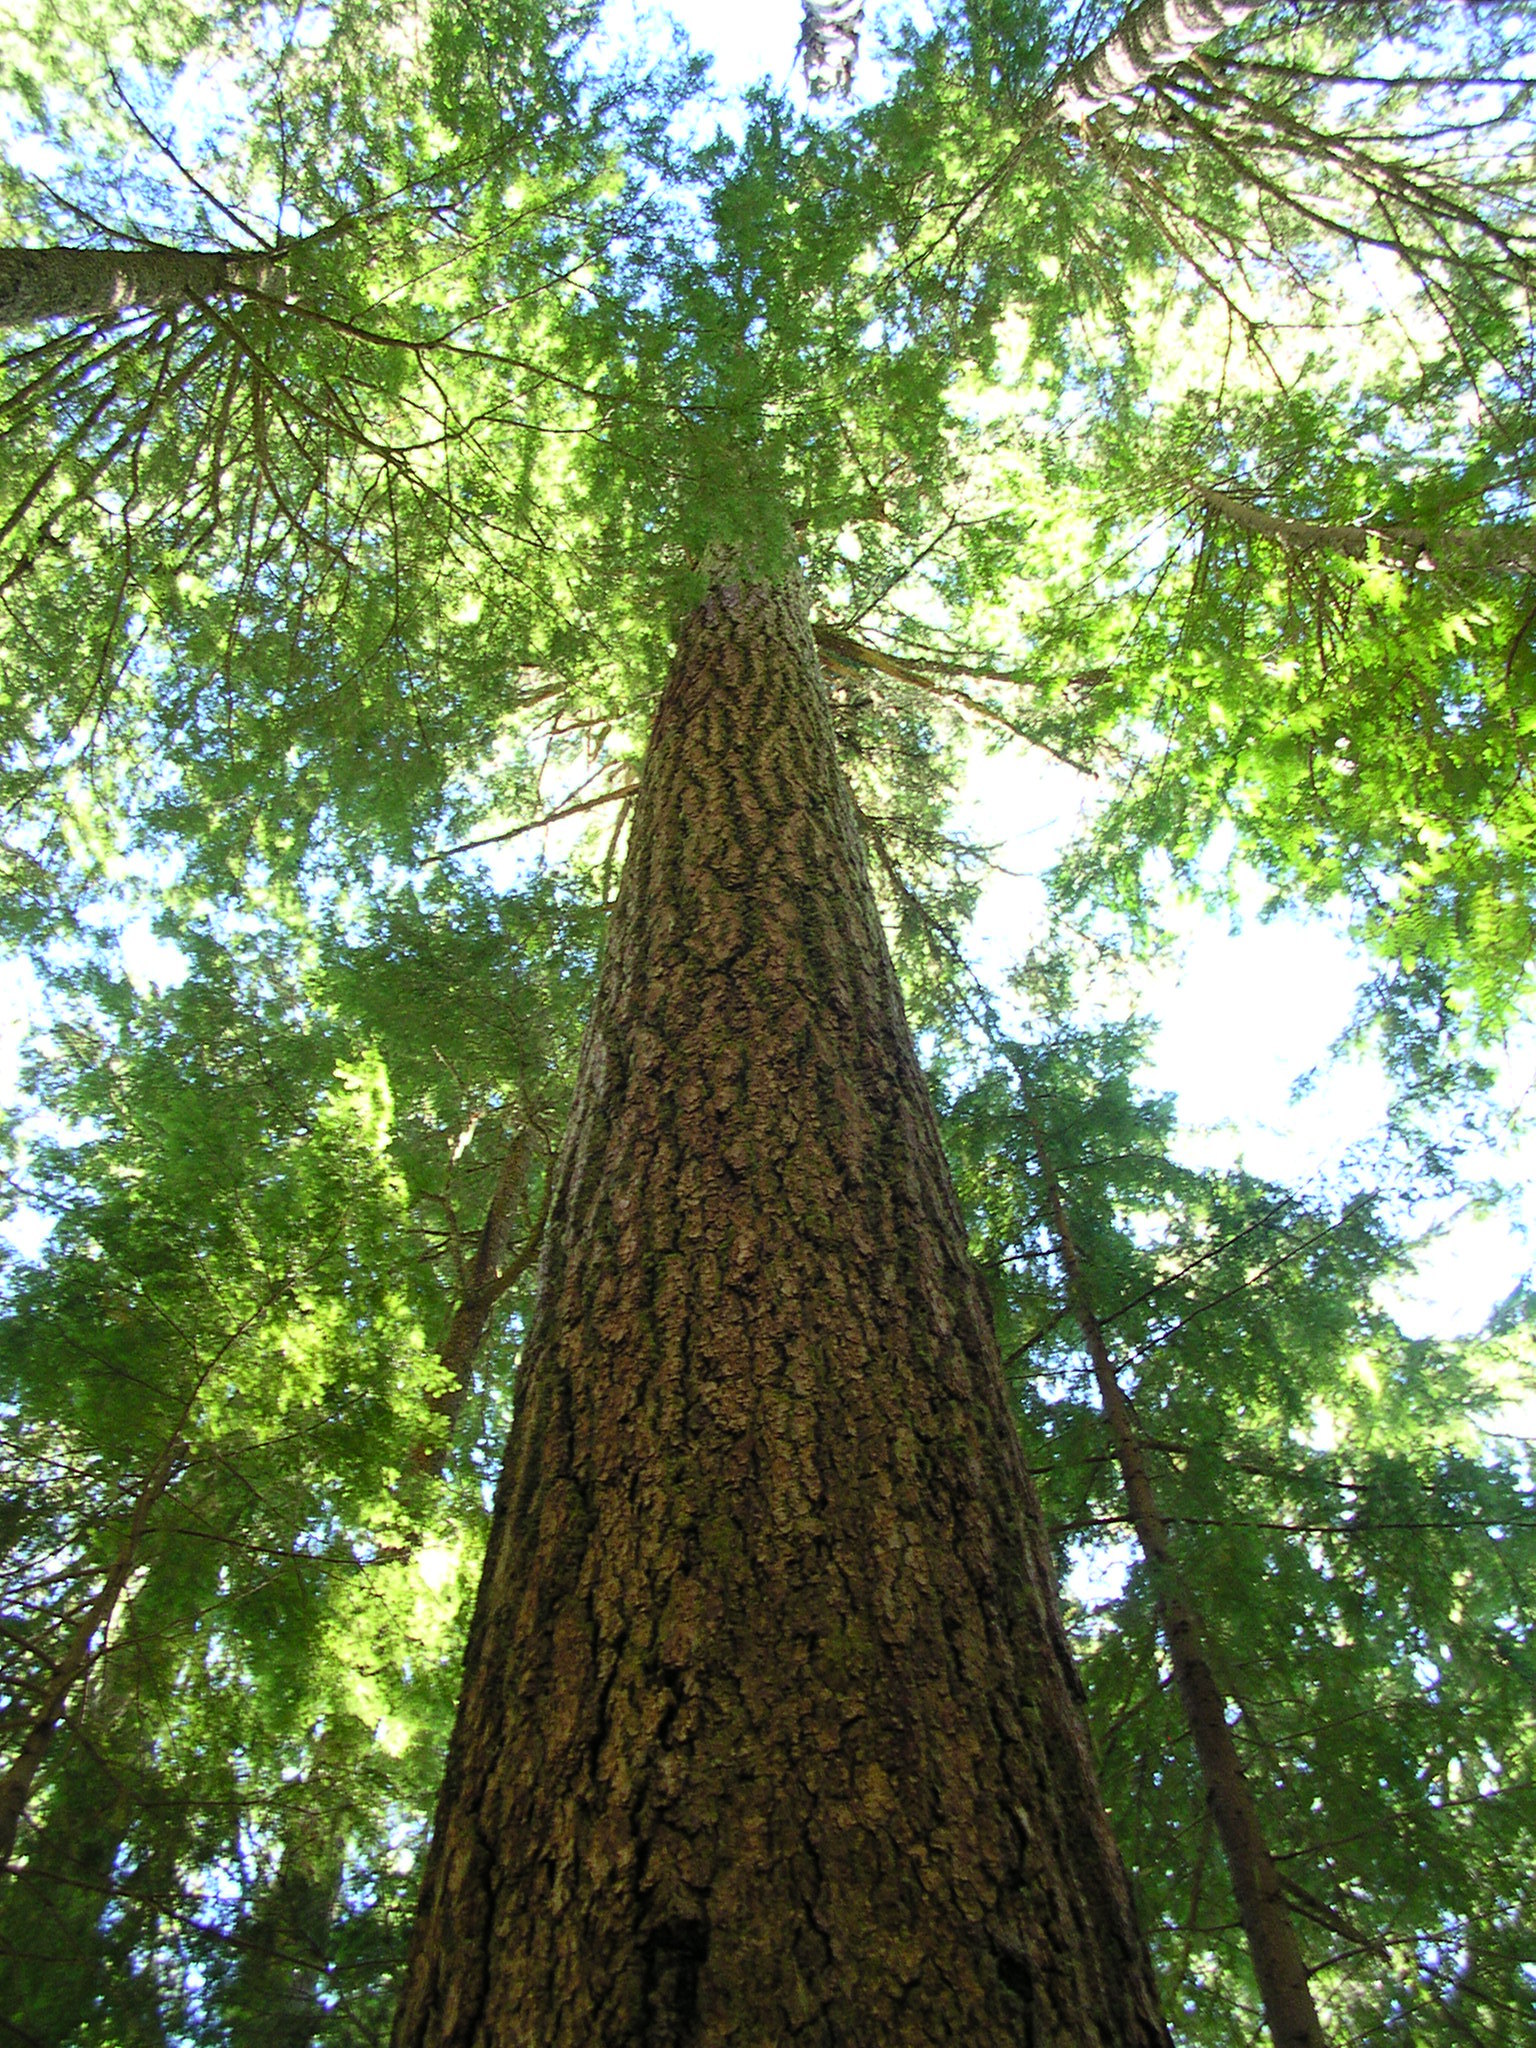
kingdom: Plantae
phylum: Tracheophyta
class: Pinopsida
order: Pinales
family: Pinaceae
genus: Pseudotsuga
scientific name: Pseudotsuga menziesii
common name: Douglas fir
